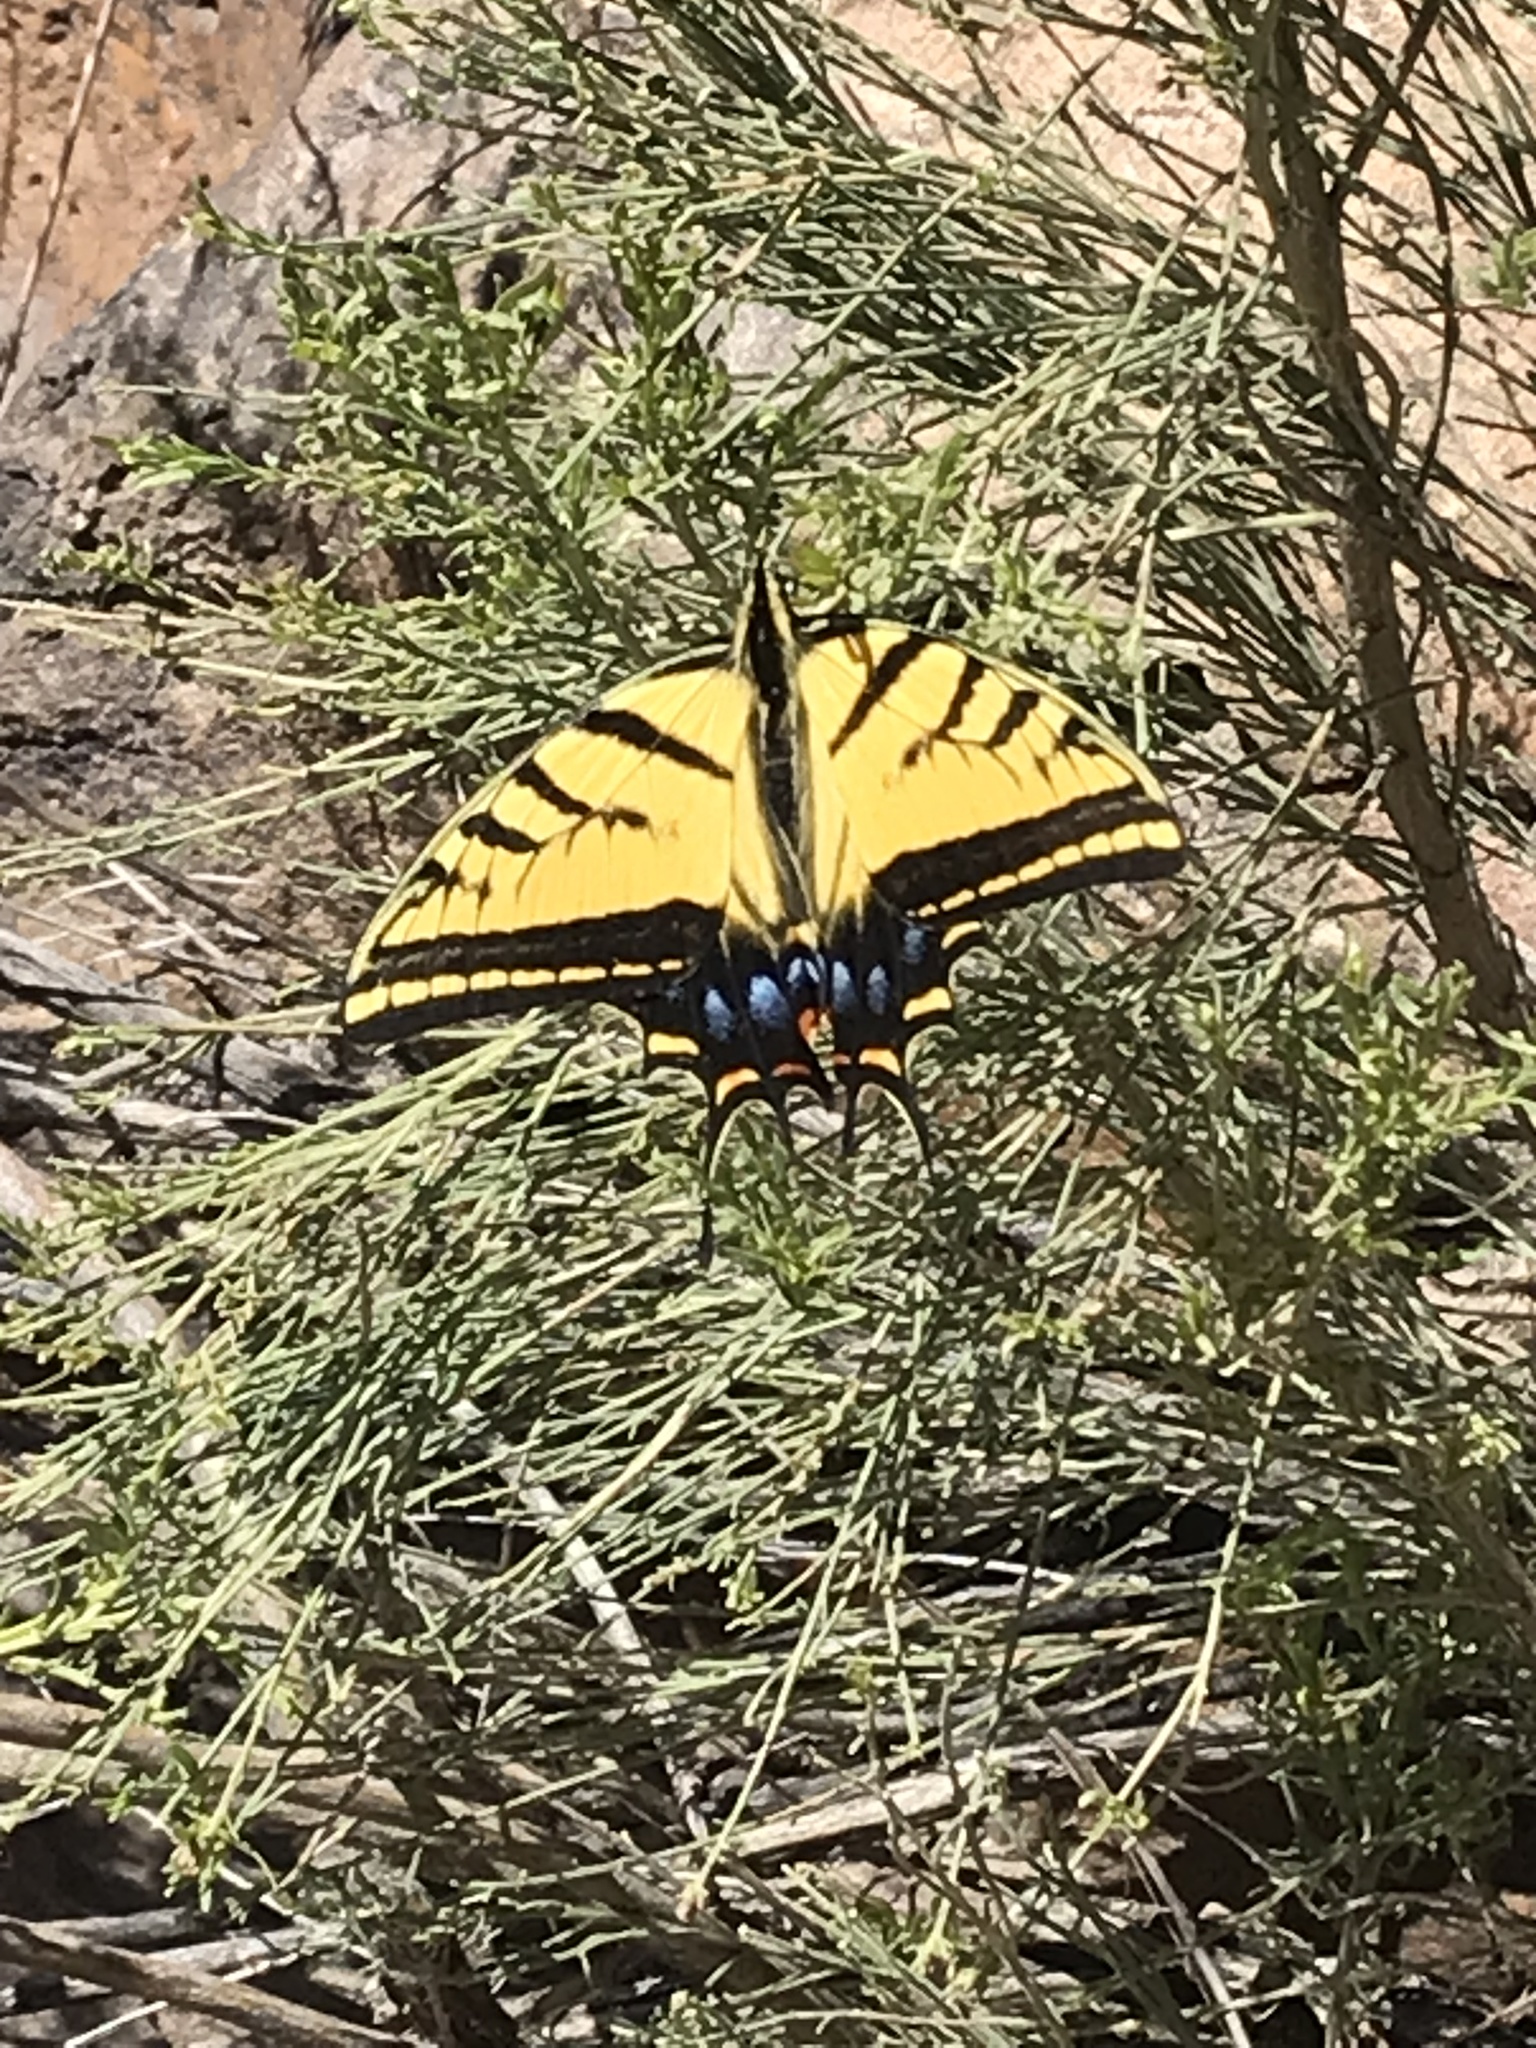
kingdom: Animalia
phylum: Arthropoda
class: Insecta
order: Lepidoptera
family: Papilionidae
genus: Papilio
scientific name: Papilio multicaudata
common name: Two-tailed tiger swallowtail
